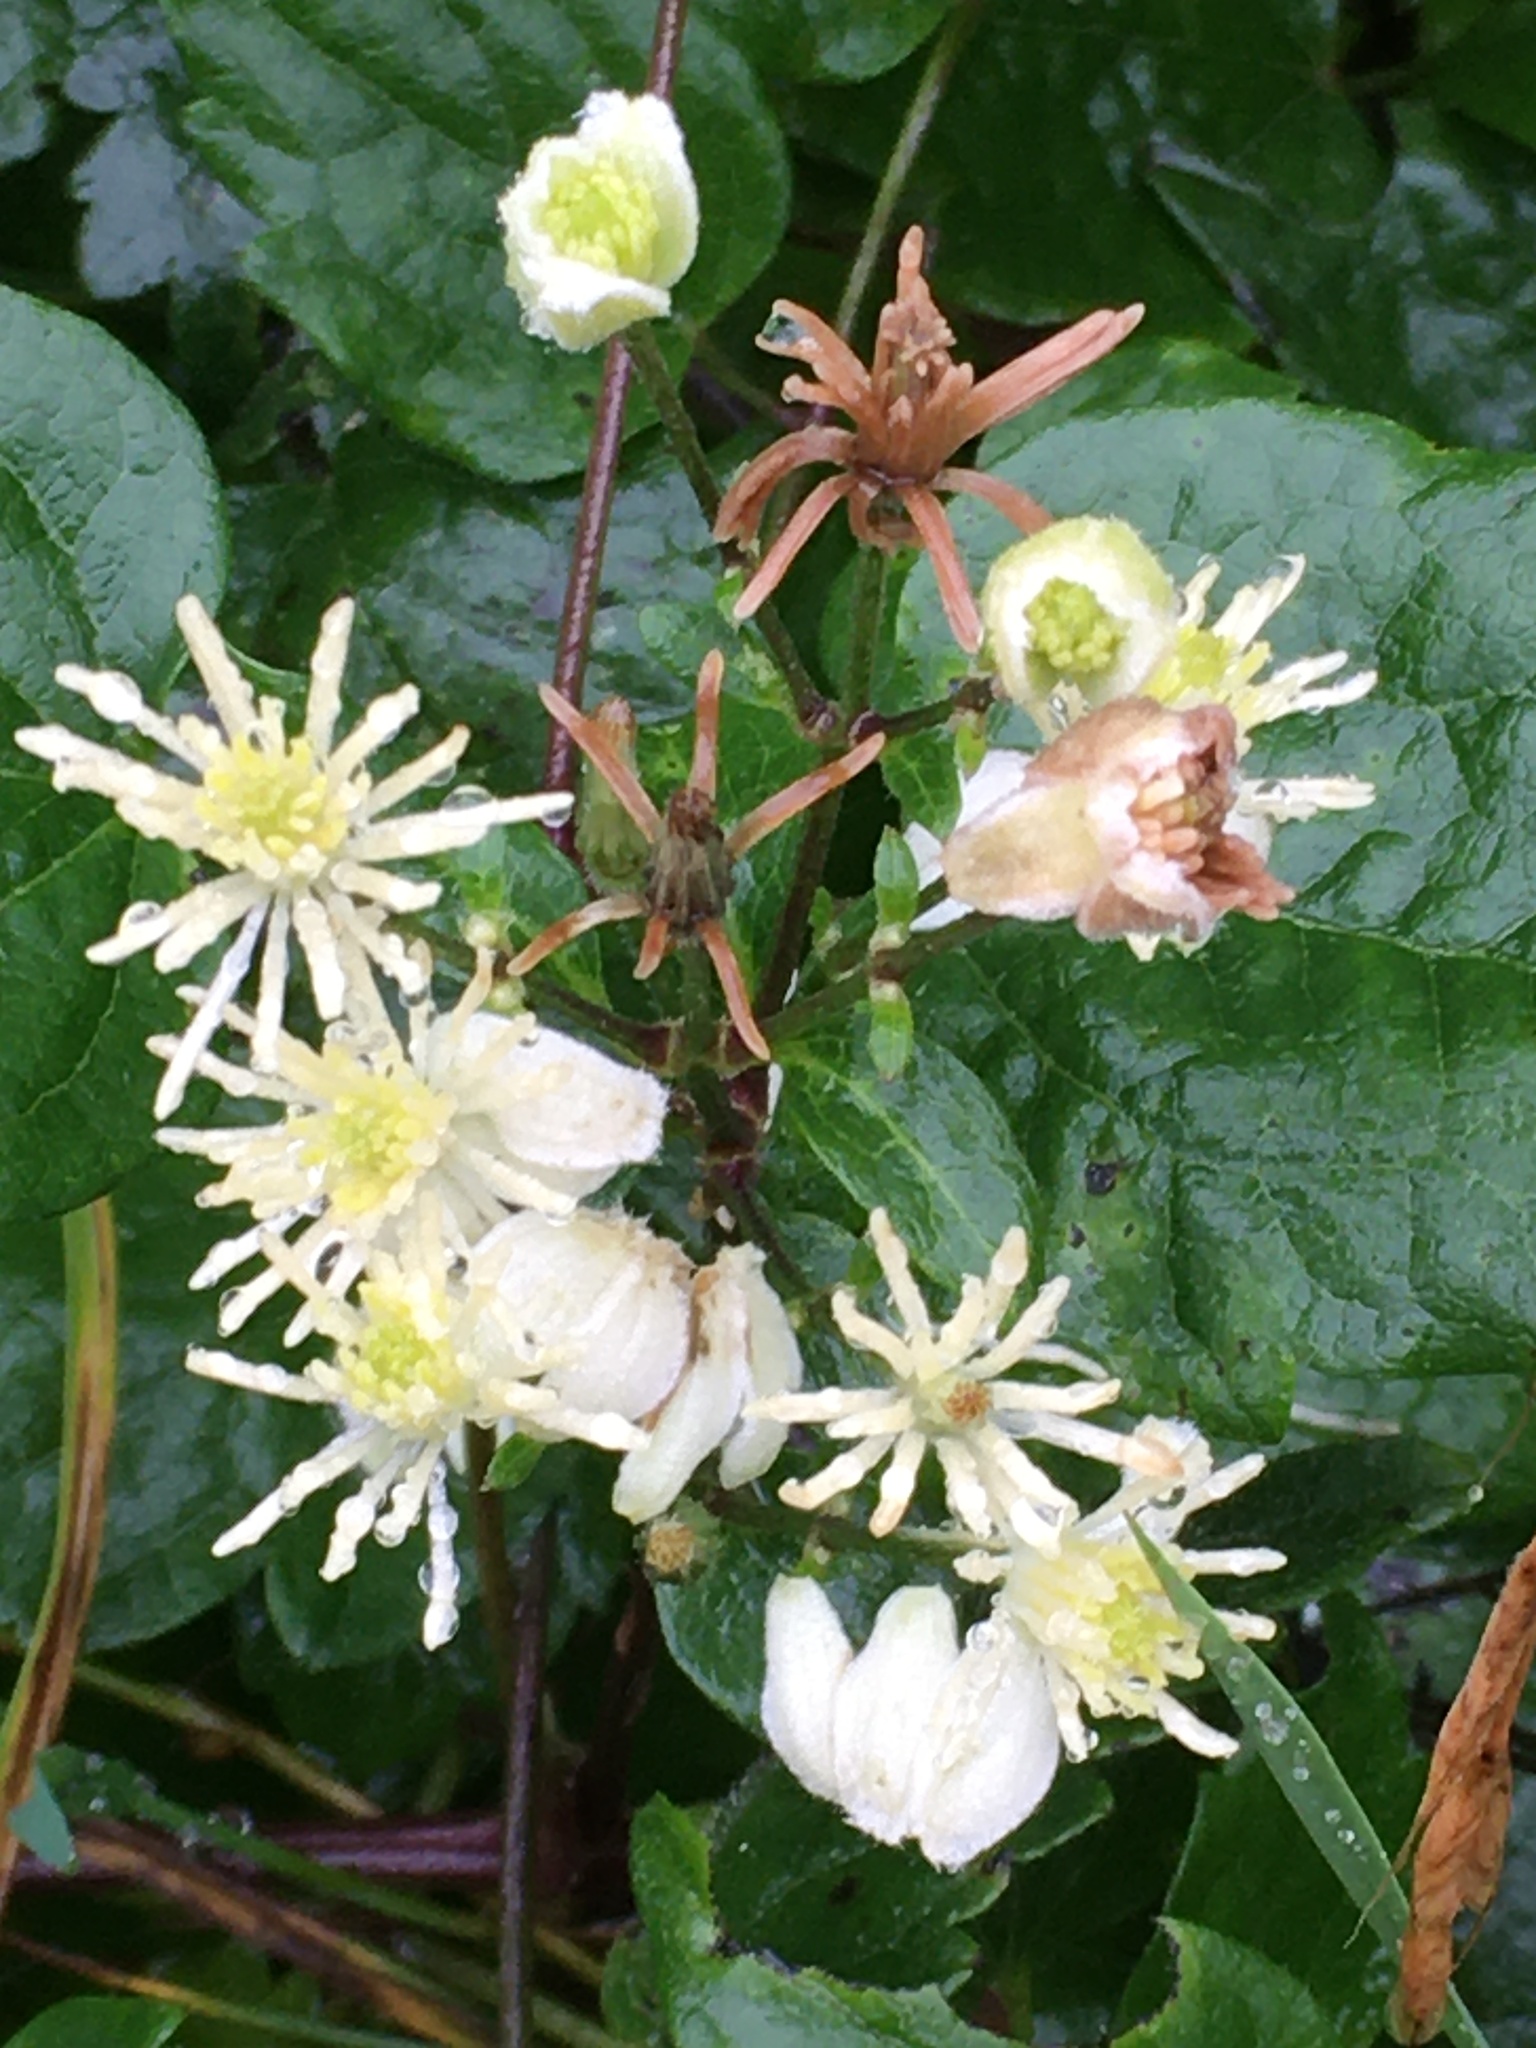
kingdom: Plantae
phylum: Tracheophyta
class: Magnoliopsida
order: Ranunculales
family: Ranunculaceae
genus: Clematis
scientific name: Clematis vitalba
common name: Evergreen clematis
